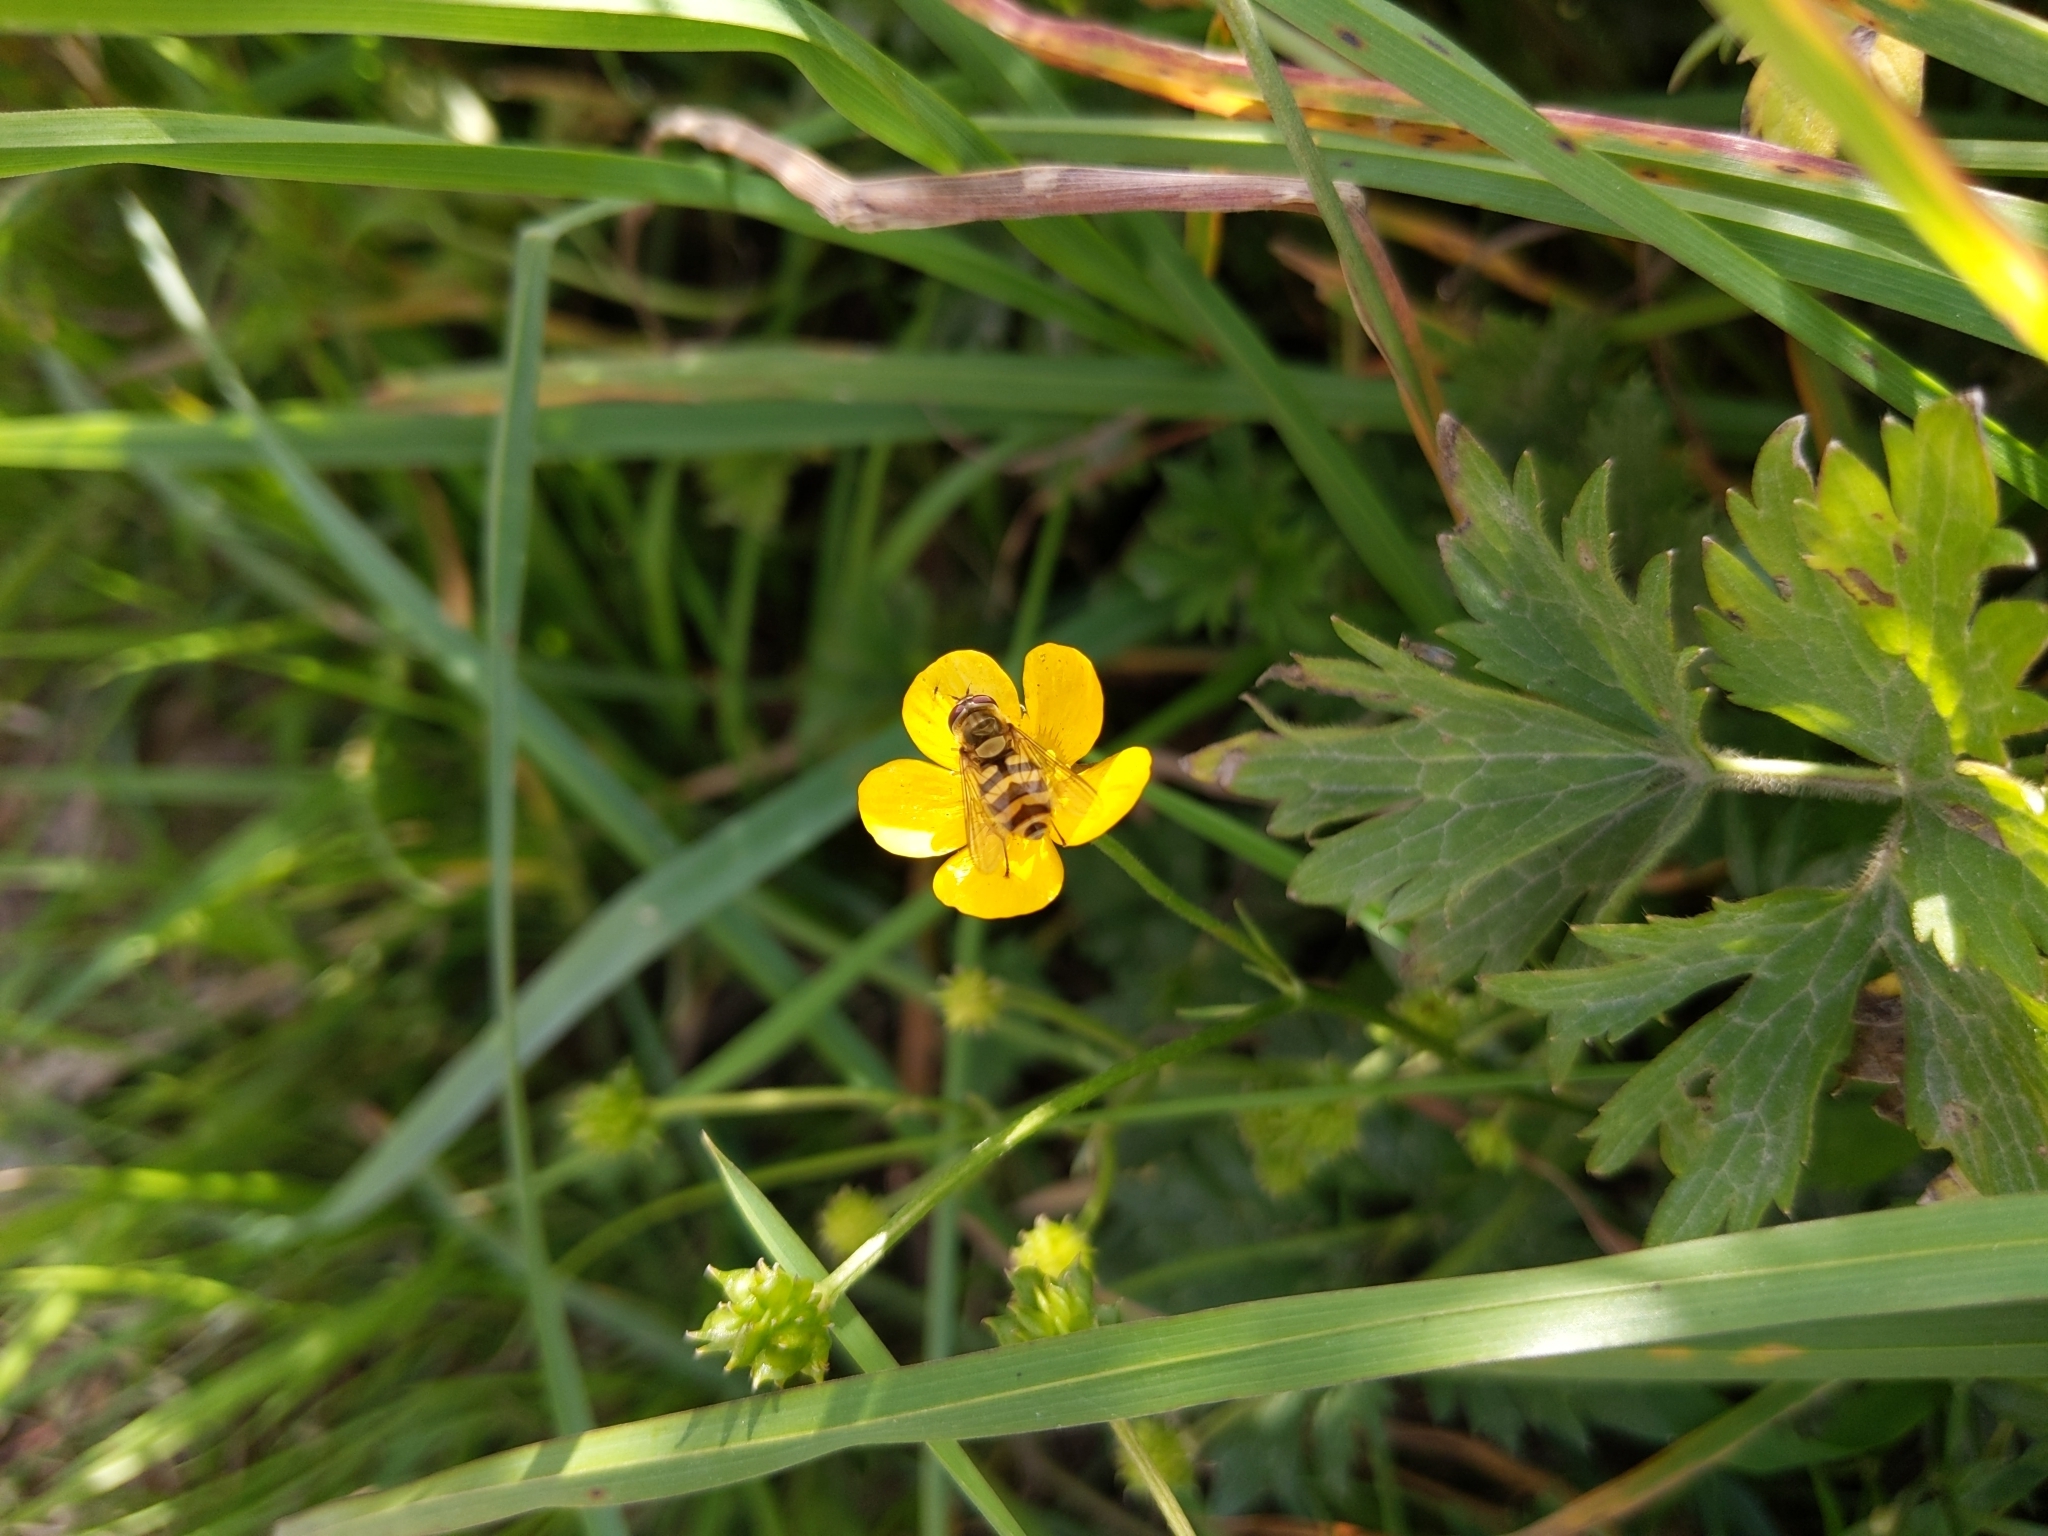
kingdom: Animalia
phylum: Arthropoda
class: Insecta
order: Diptera
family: Syrphidae
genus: Syrphus
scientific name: Syrphus
